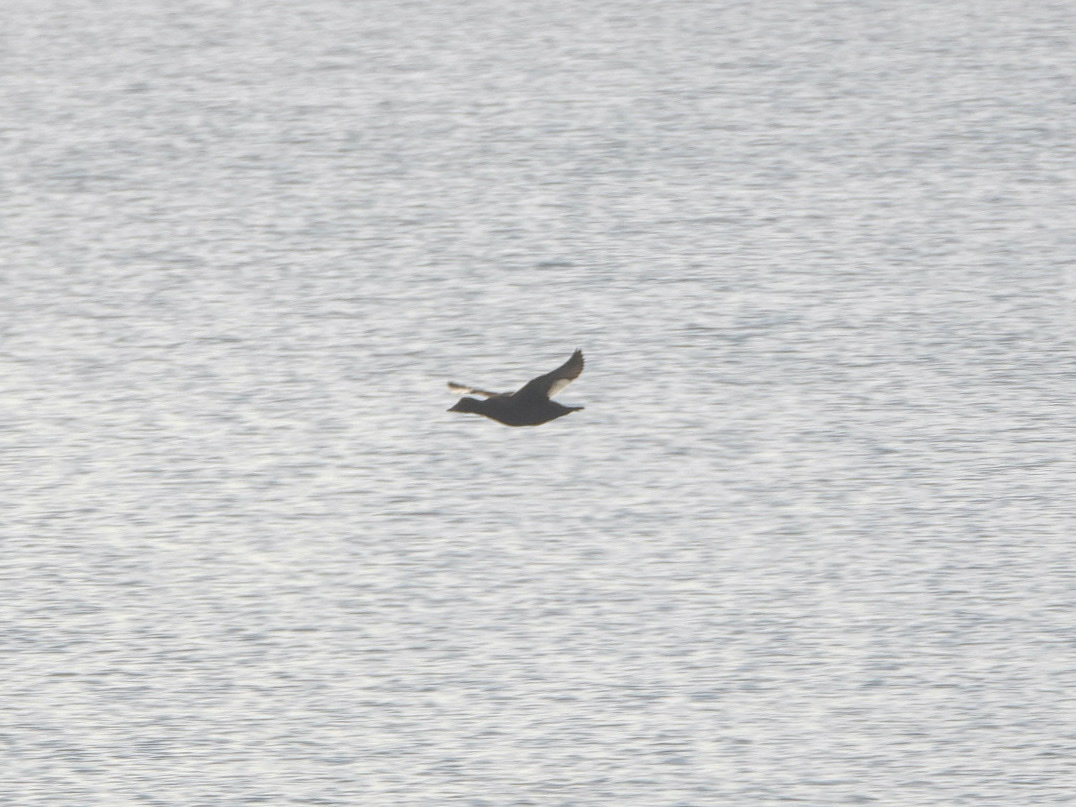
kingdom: Animalia
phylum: Chordata
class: Aves
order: Anseriformes
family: Anatidae
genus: Melanitta
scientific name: Melanitta deglandi
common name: White-winged scoter
